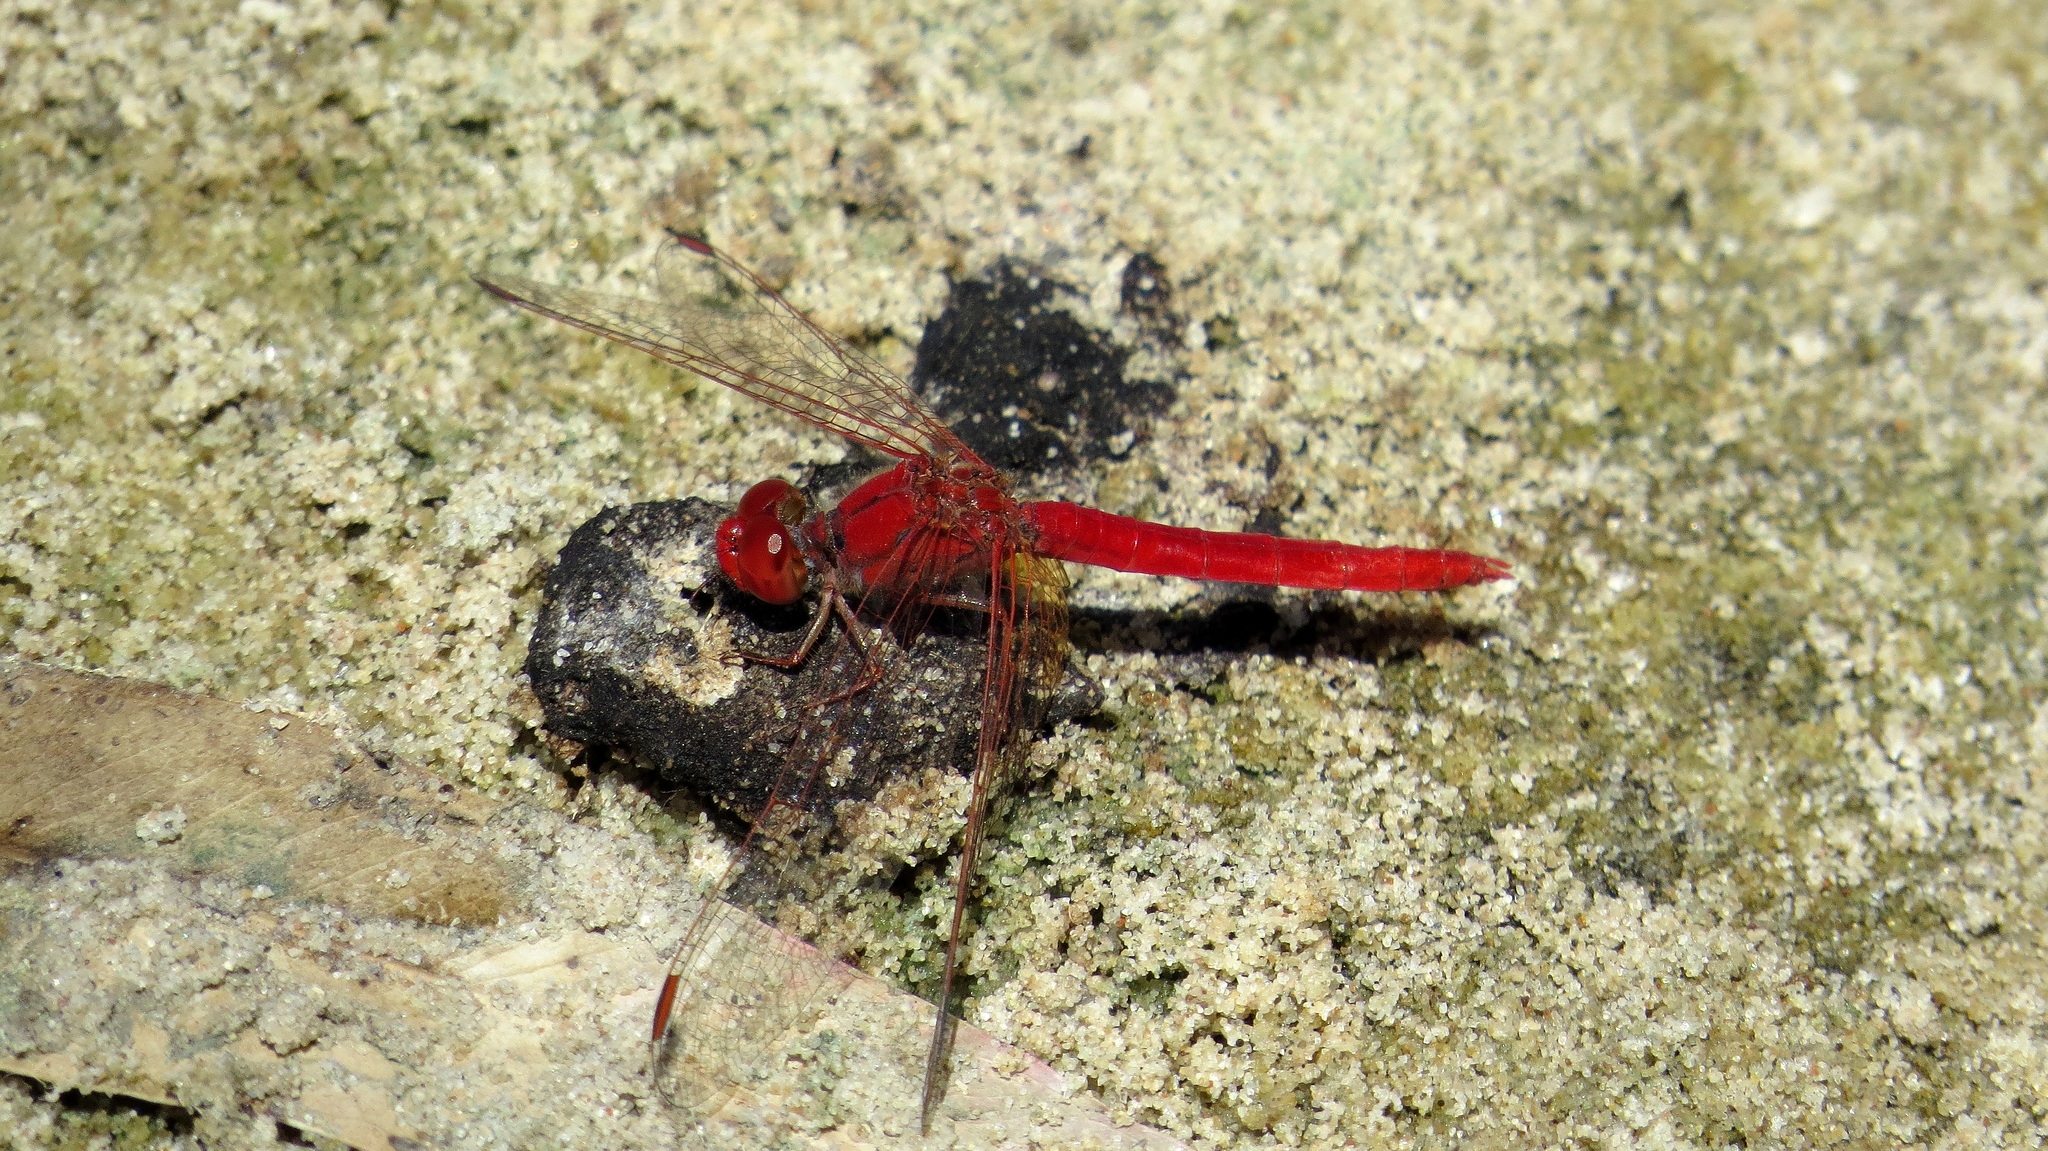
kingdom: Animalia
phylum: Arthropoda
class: Insecta
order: Odonata
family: Libellulidae
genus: Diplacodes
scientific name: Diplacodes haematodes
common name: Scarlet percher
